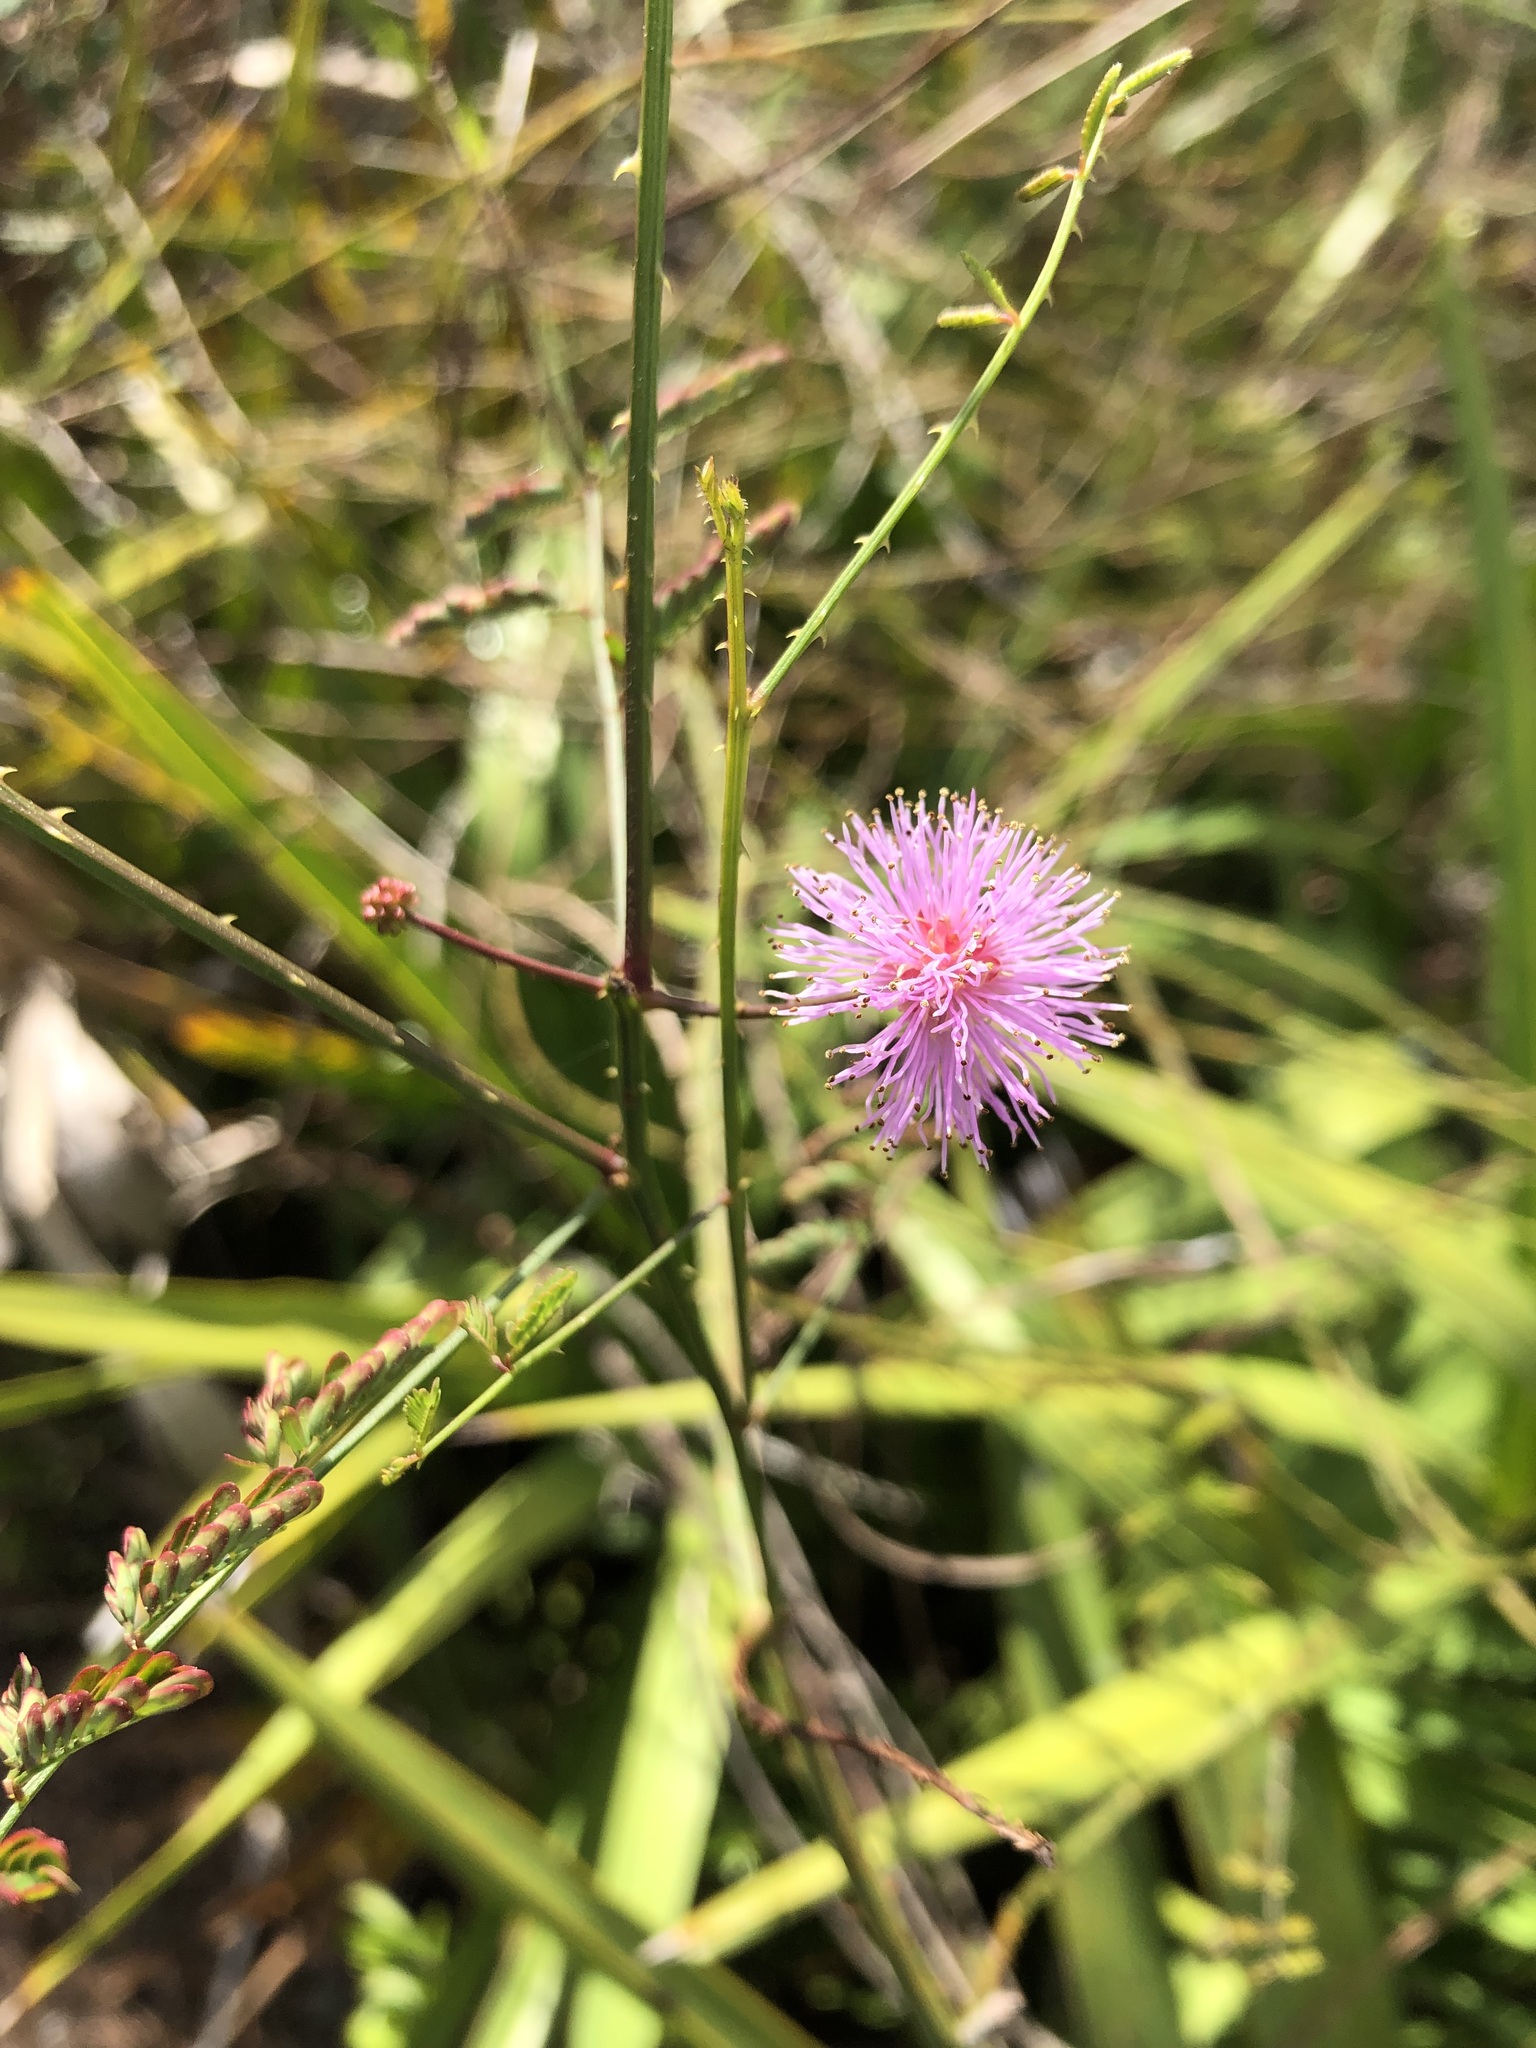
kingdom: Plantae
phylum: Tracheophyta
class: Magnoliopsida
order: Fabales
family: Fabaceae
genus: Mimosa
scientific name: Mimosa quadrivalvis
